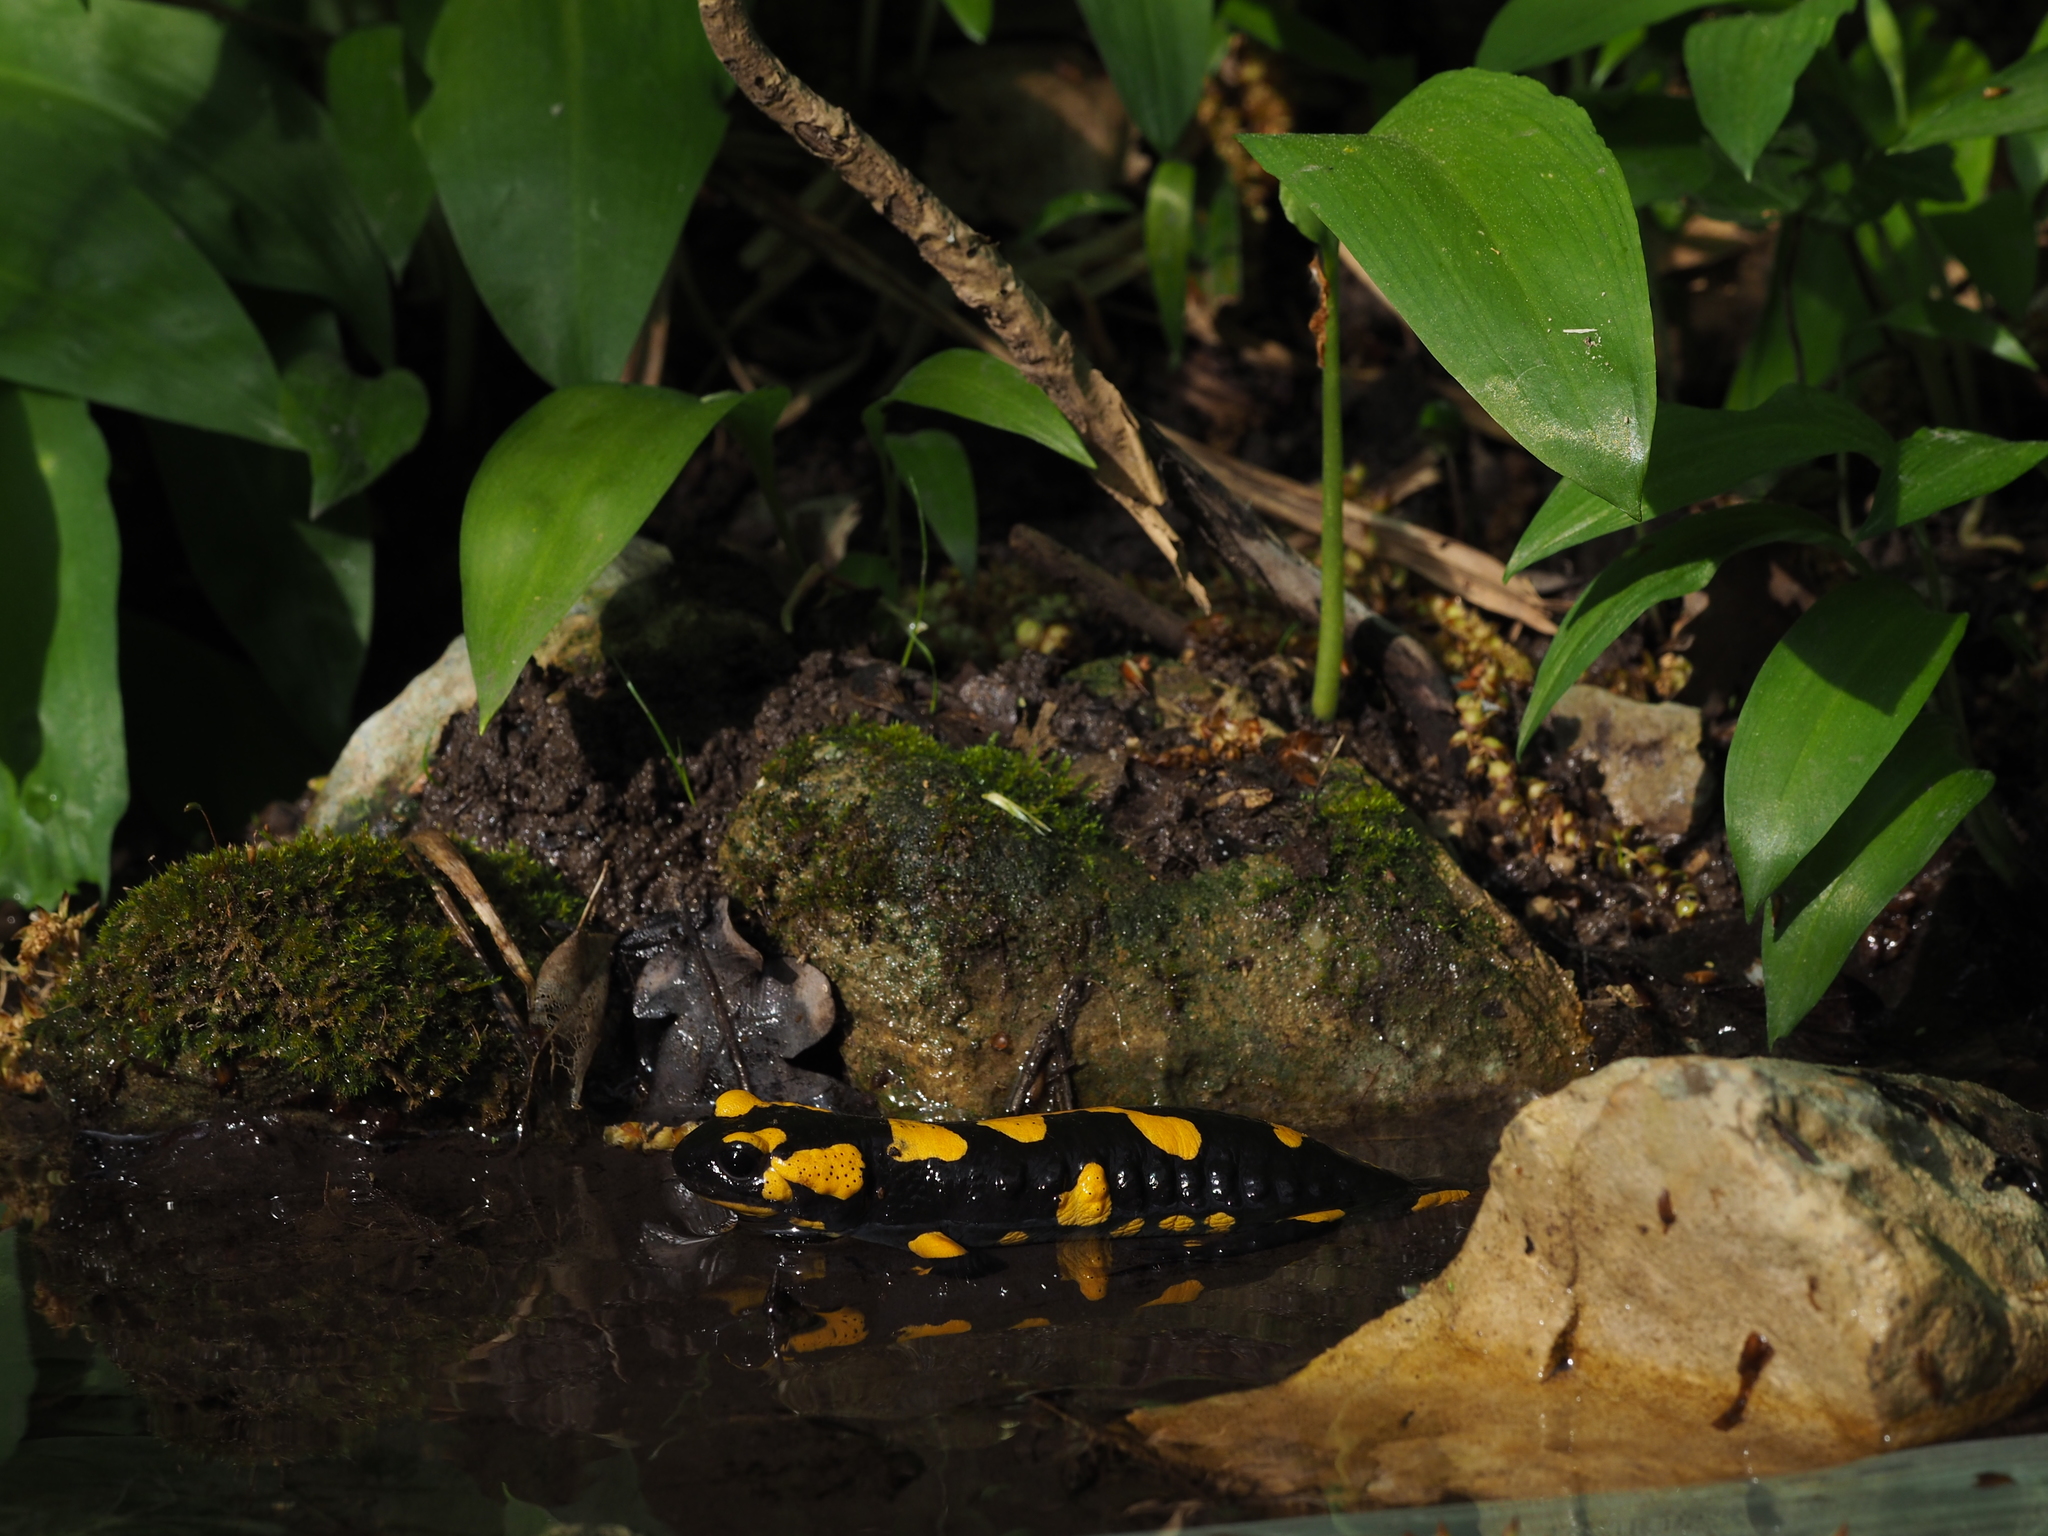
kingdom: Animalia
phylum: Chordata
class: Amphibia
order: Caudata
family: Salamandridae
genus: Salamandra
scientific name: Salamandra salamandra
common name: Fire salamander
